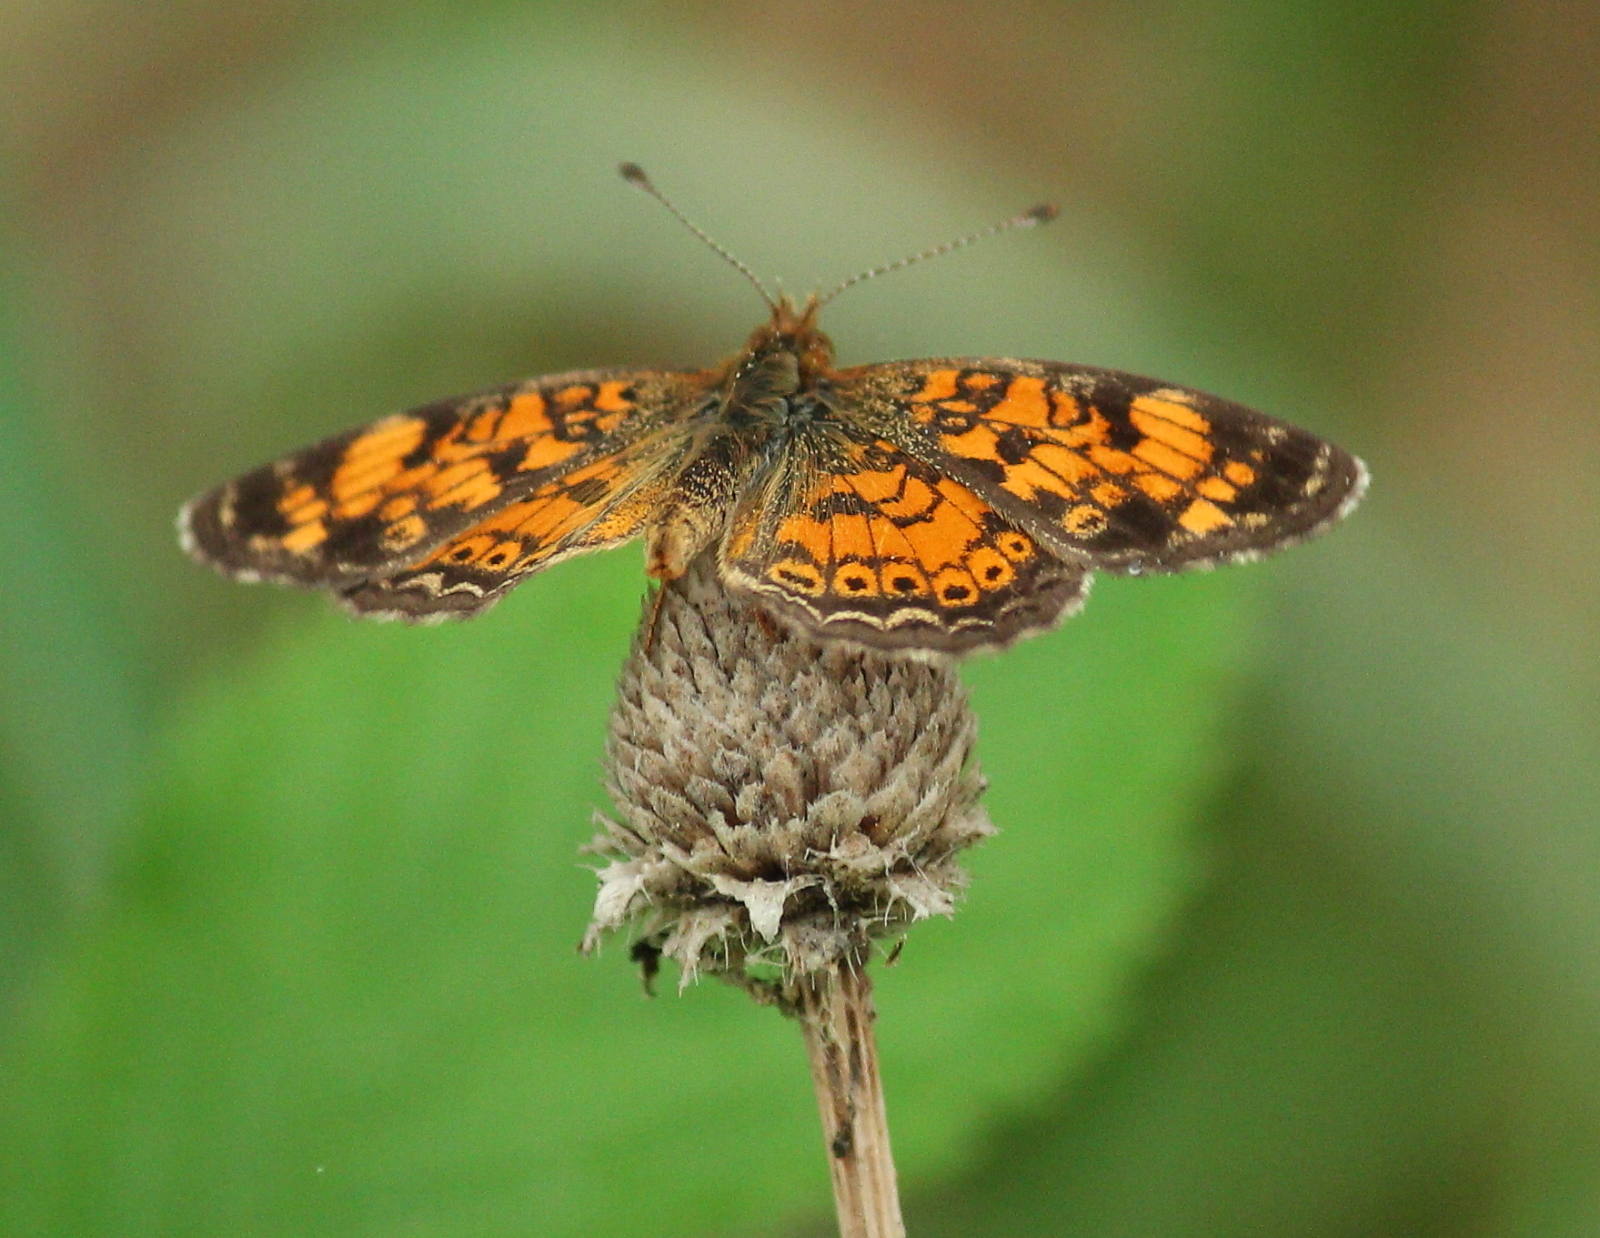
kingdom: Animalia
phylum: Arthropoda
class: Insecta
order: Lepidoptera
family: Nymphalidae
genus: Phyciodes
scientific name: Phyciodes tharos
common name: Pearl crescent
